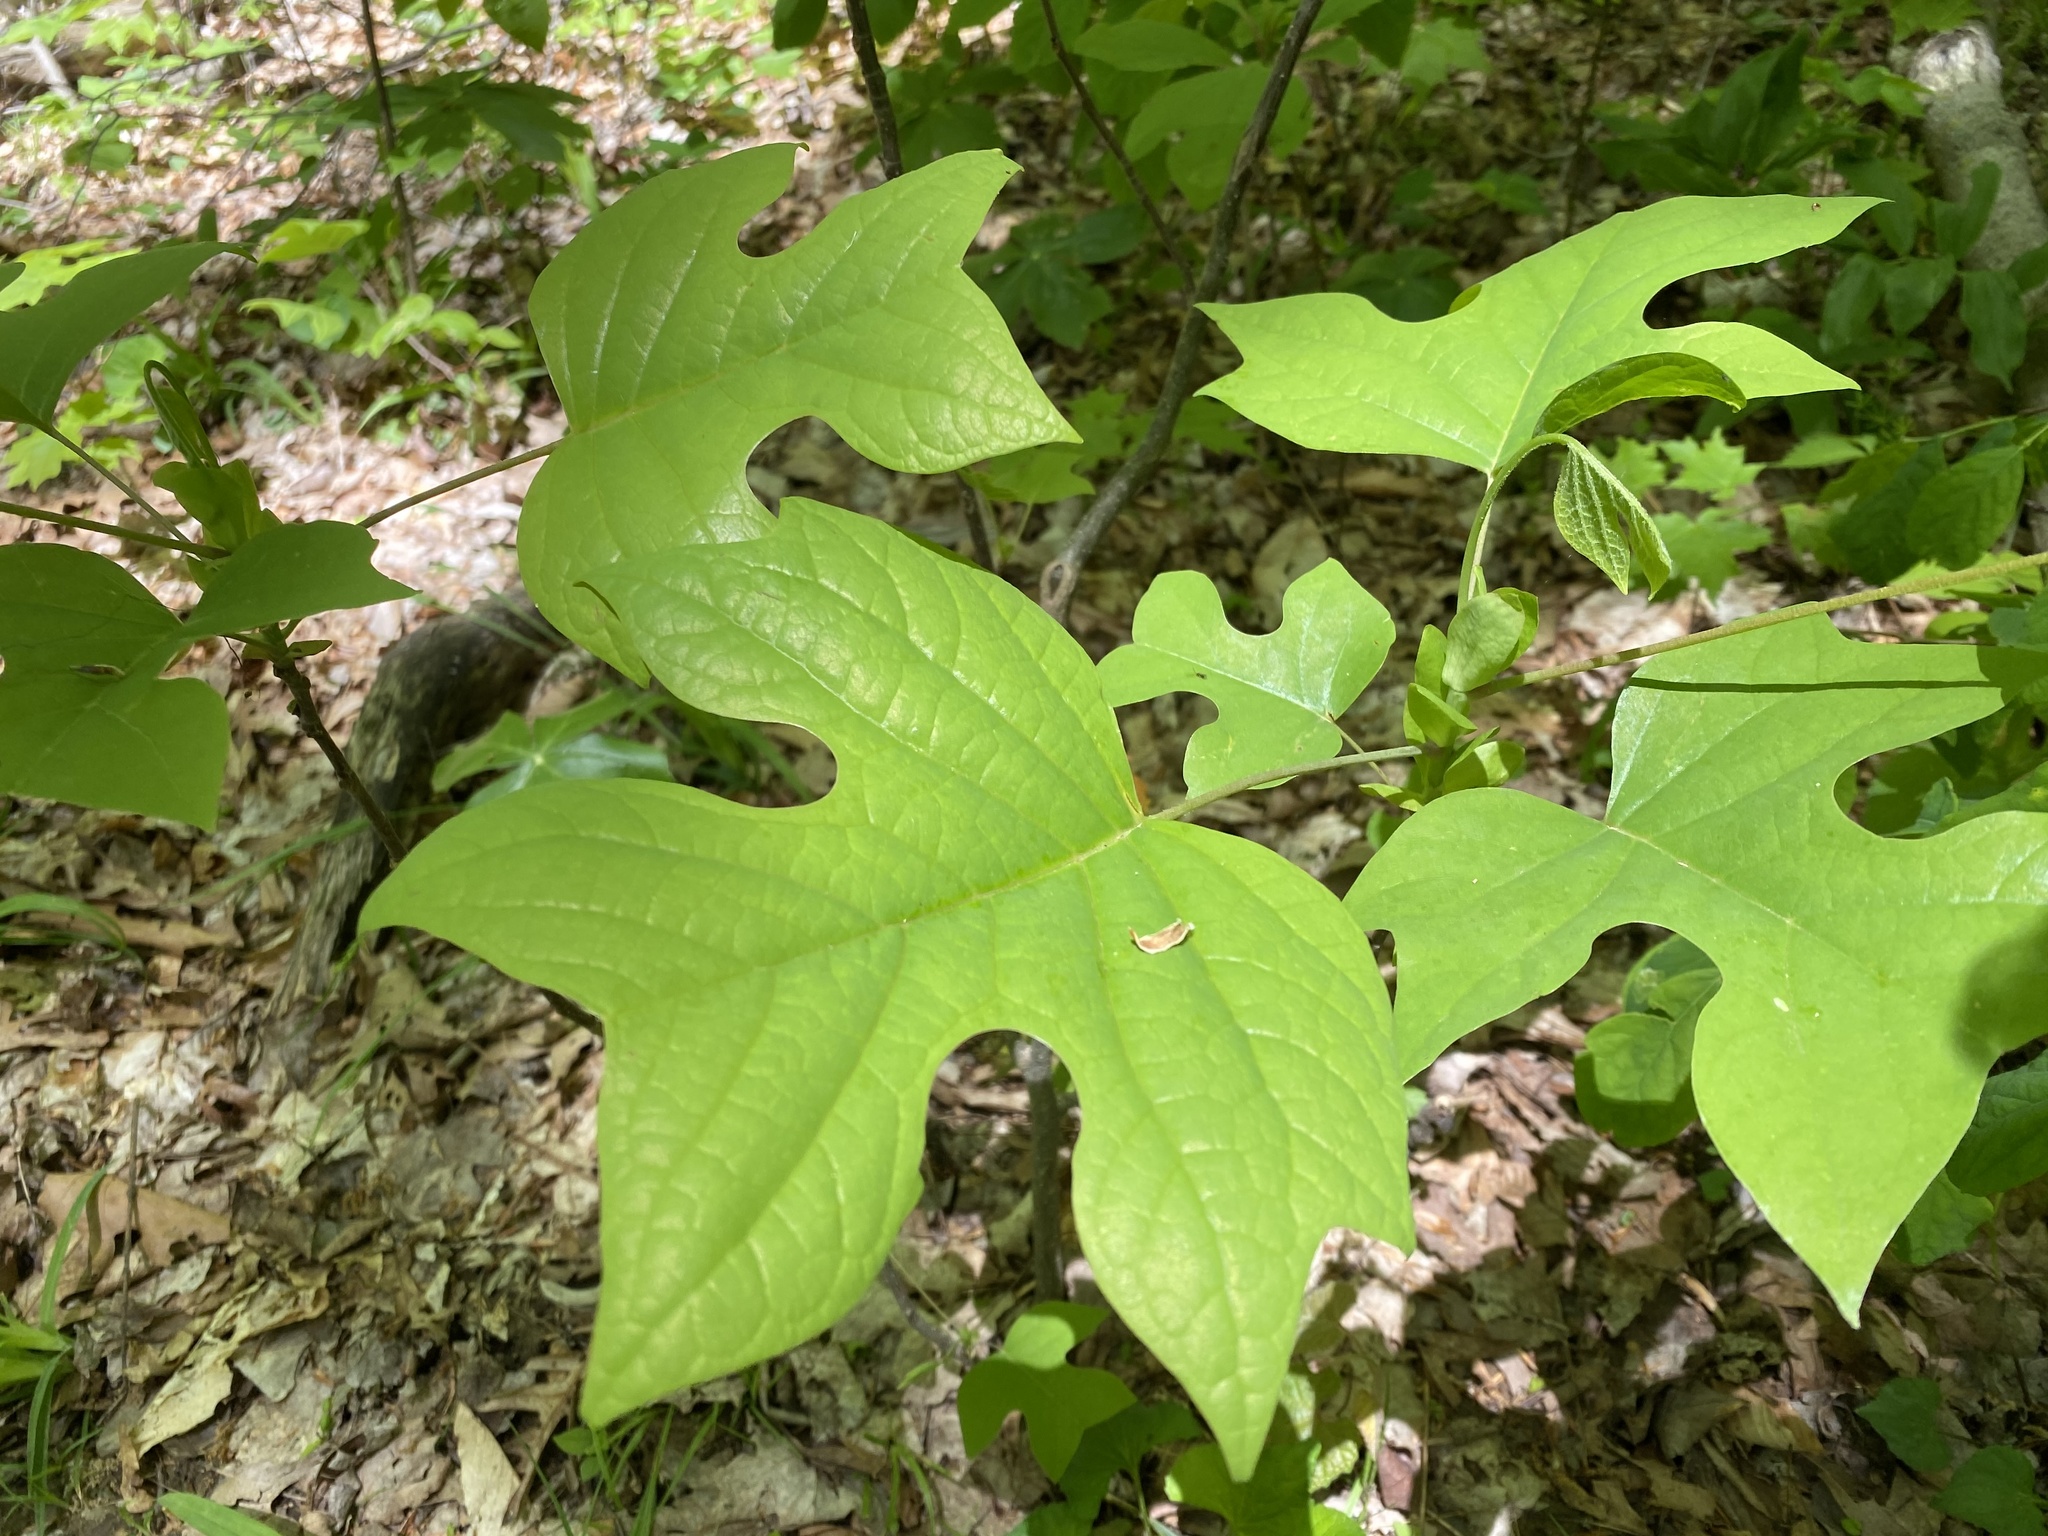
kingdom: Plantae
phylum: Tracheophyta
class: Magnoliopsida
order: Magnoliales
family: Magnoliaceae
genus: Liriodendron
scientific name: Liriodendron tulipifera
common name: Tulip tree
